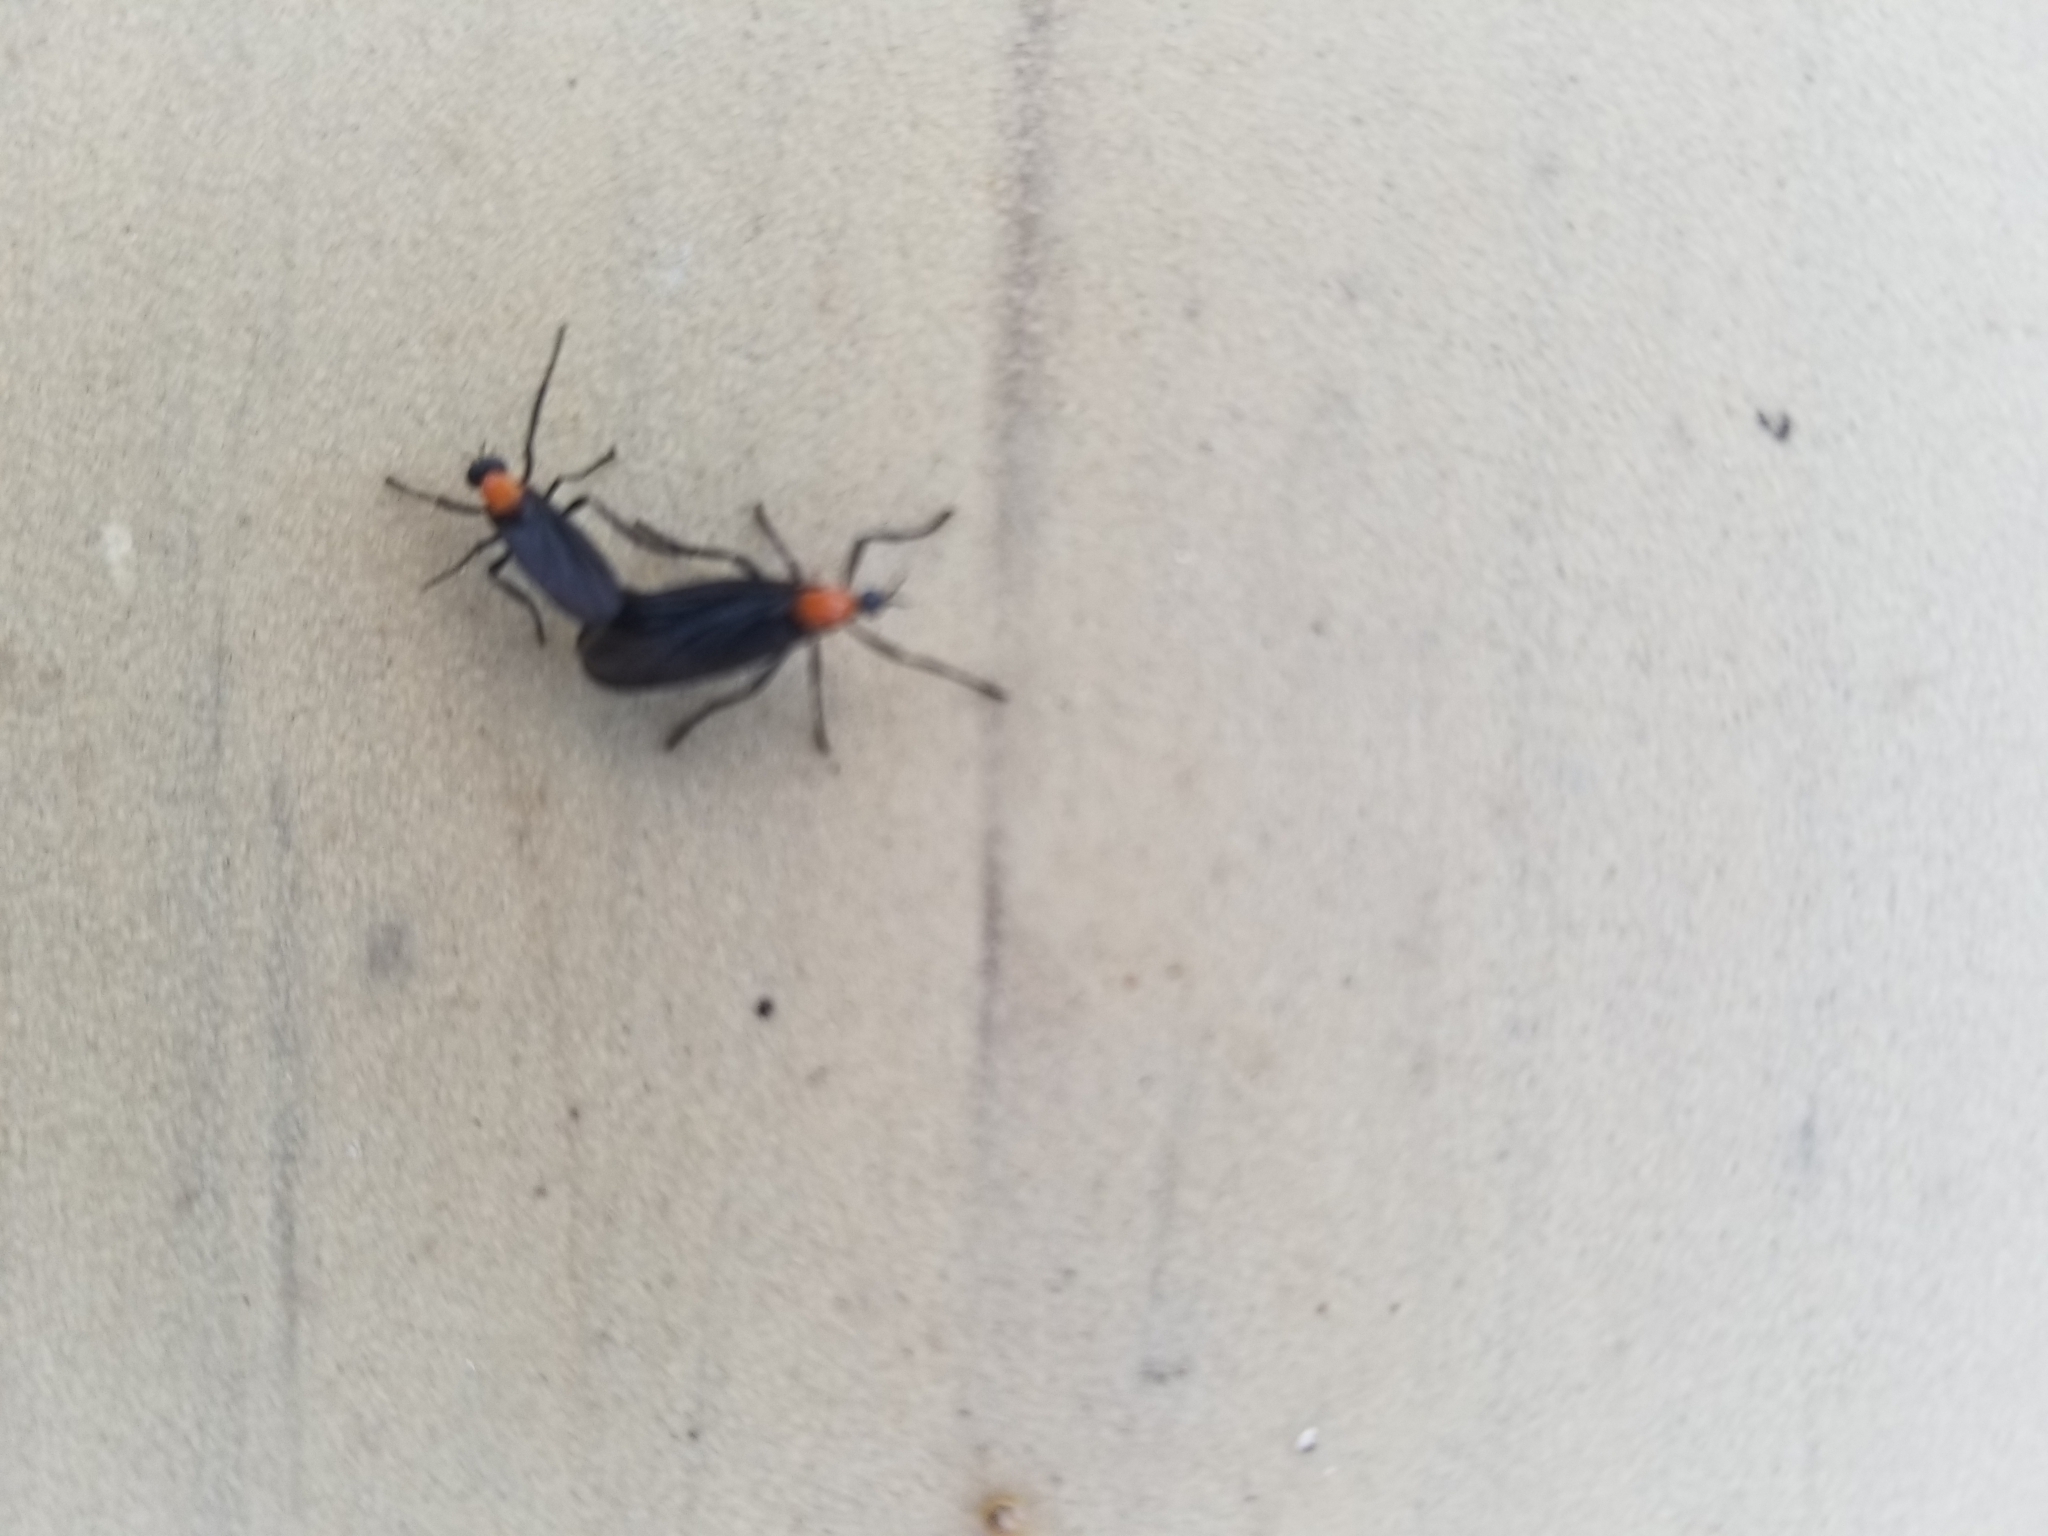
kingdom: Animalia
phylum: Arthropoda
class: Insecta
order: Diptera
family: Bibionidae
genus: Plecia
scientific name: Plecia nearctica
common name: March fly
